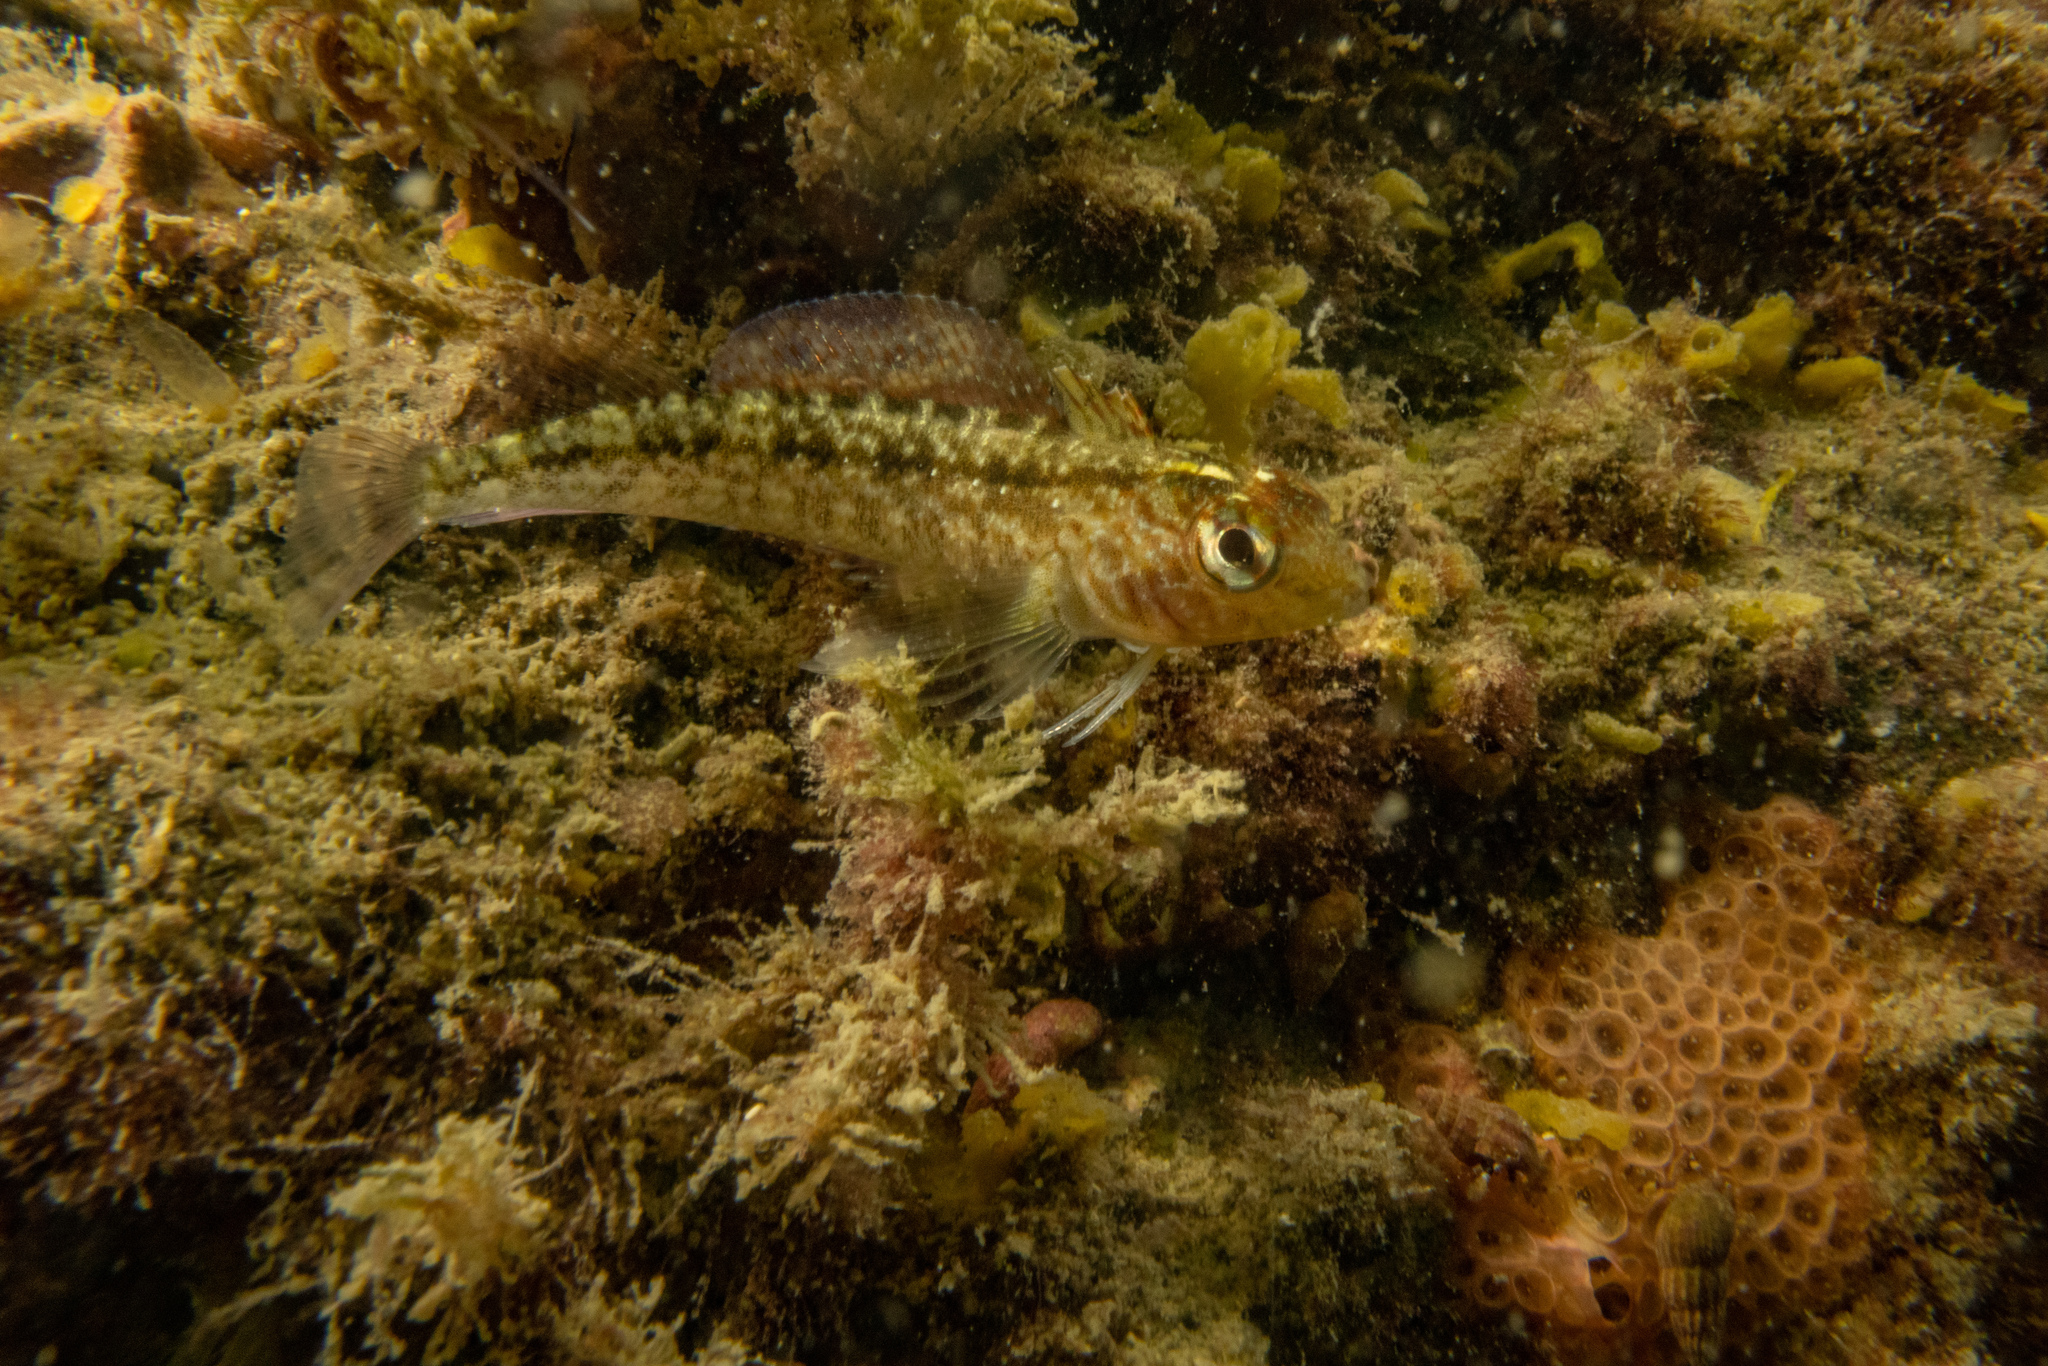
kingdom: Animalia
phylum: Chordata
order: Perciformes
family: Tripterygiidae
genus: Forsterygion
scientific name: Forsterygion lapillum
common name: Common triplefin
